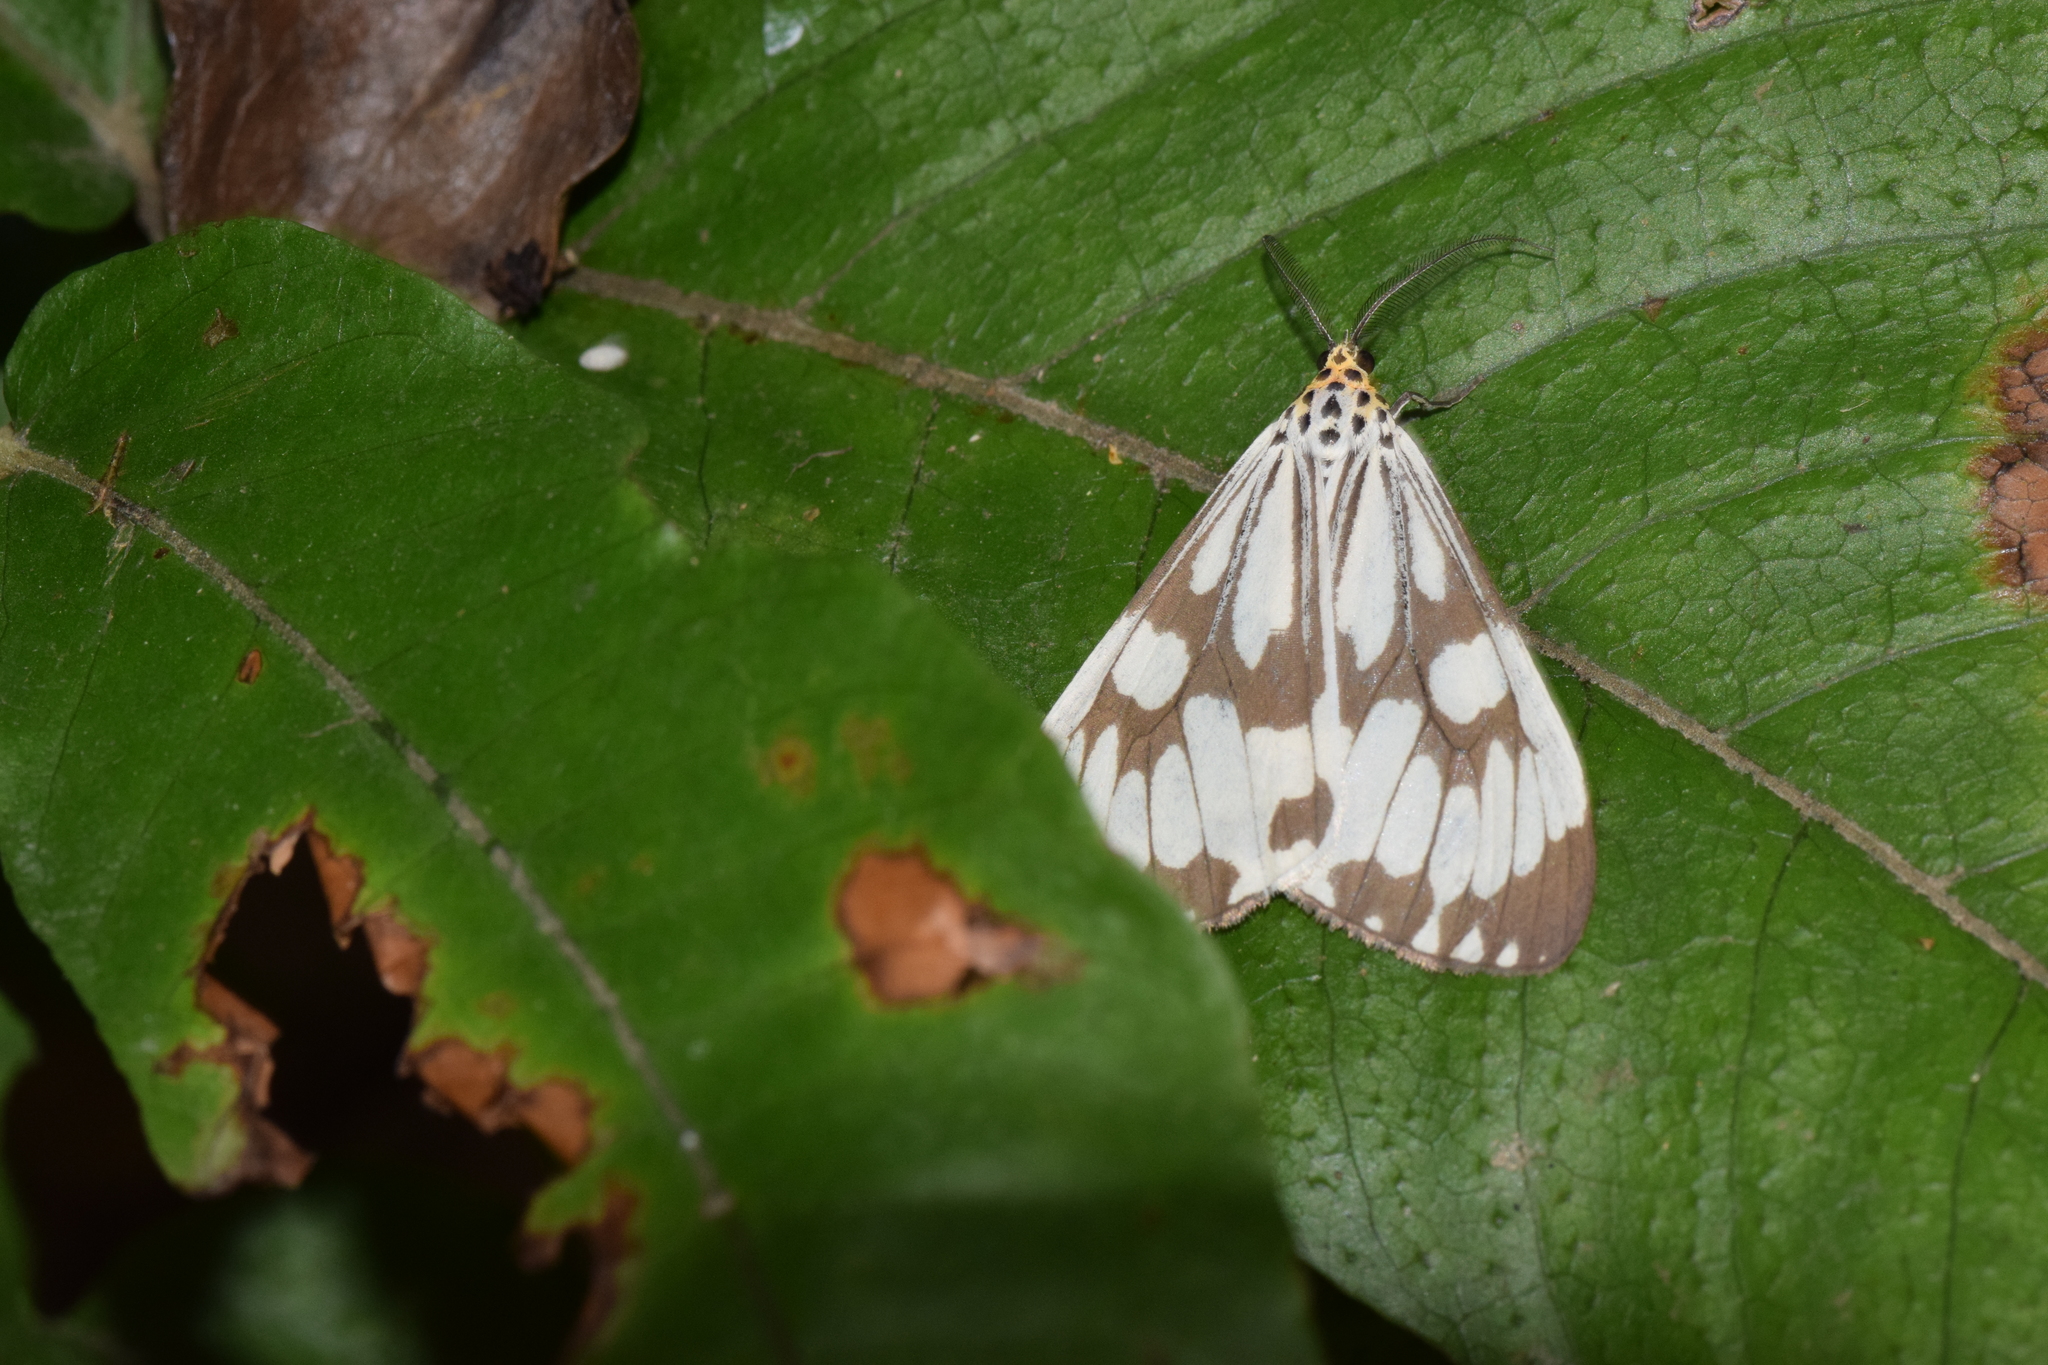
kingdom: Animalia
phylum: Arthropoda
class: Insecta
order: Lepidoptera
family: Erebidae
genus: Nyctemera
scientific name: Nyctemera adversata
